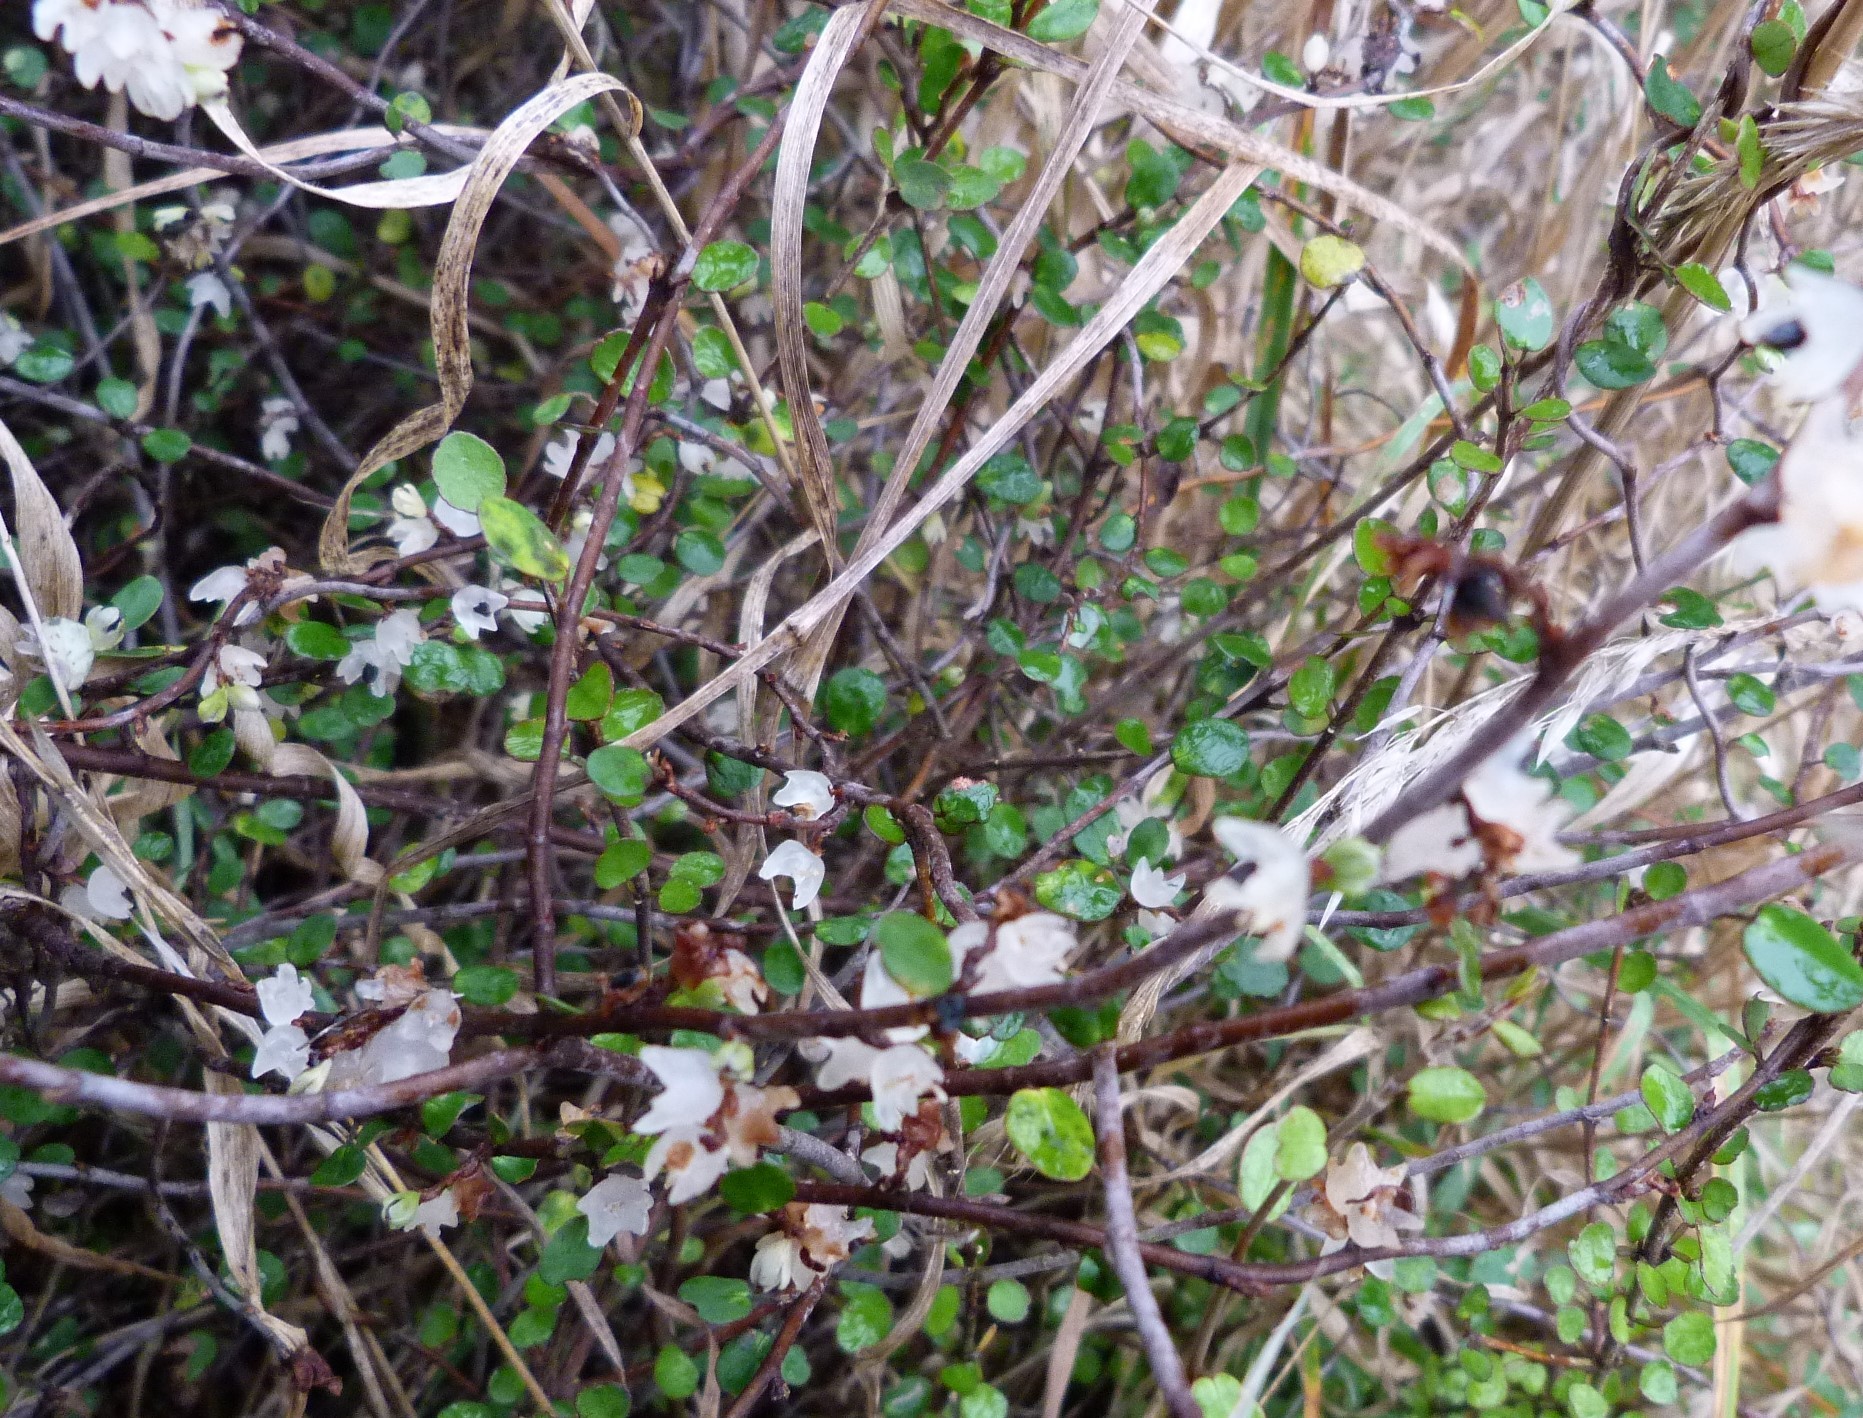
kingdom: Plantae
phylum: Tracheophyta
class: Magnoliopsida
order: Caryophyllales
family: Polygonaceae
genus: Muehlenbeckia
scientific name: Muehlenbeckia complexa
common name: Wireplant
